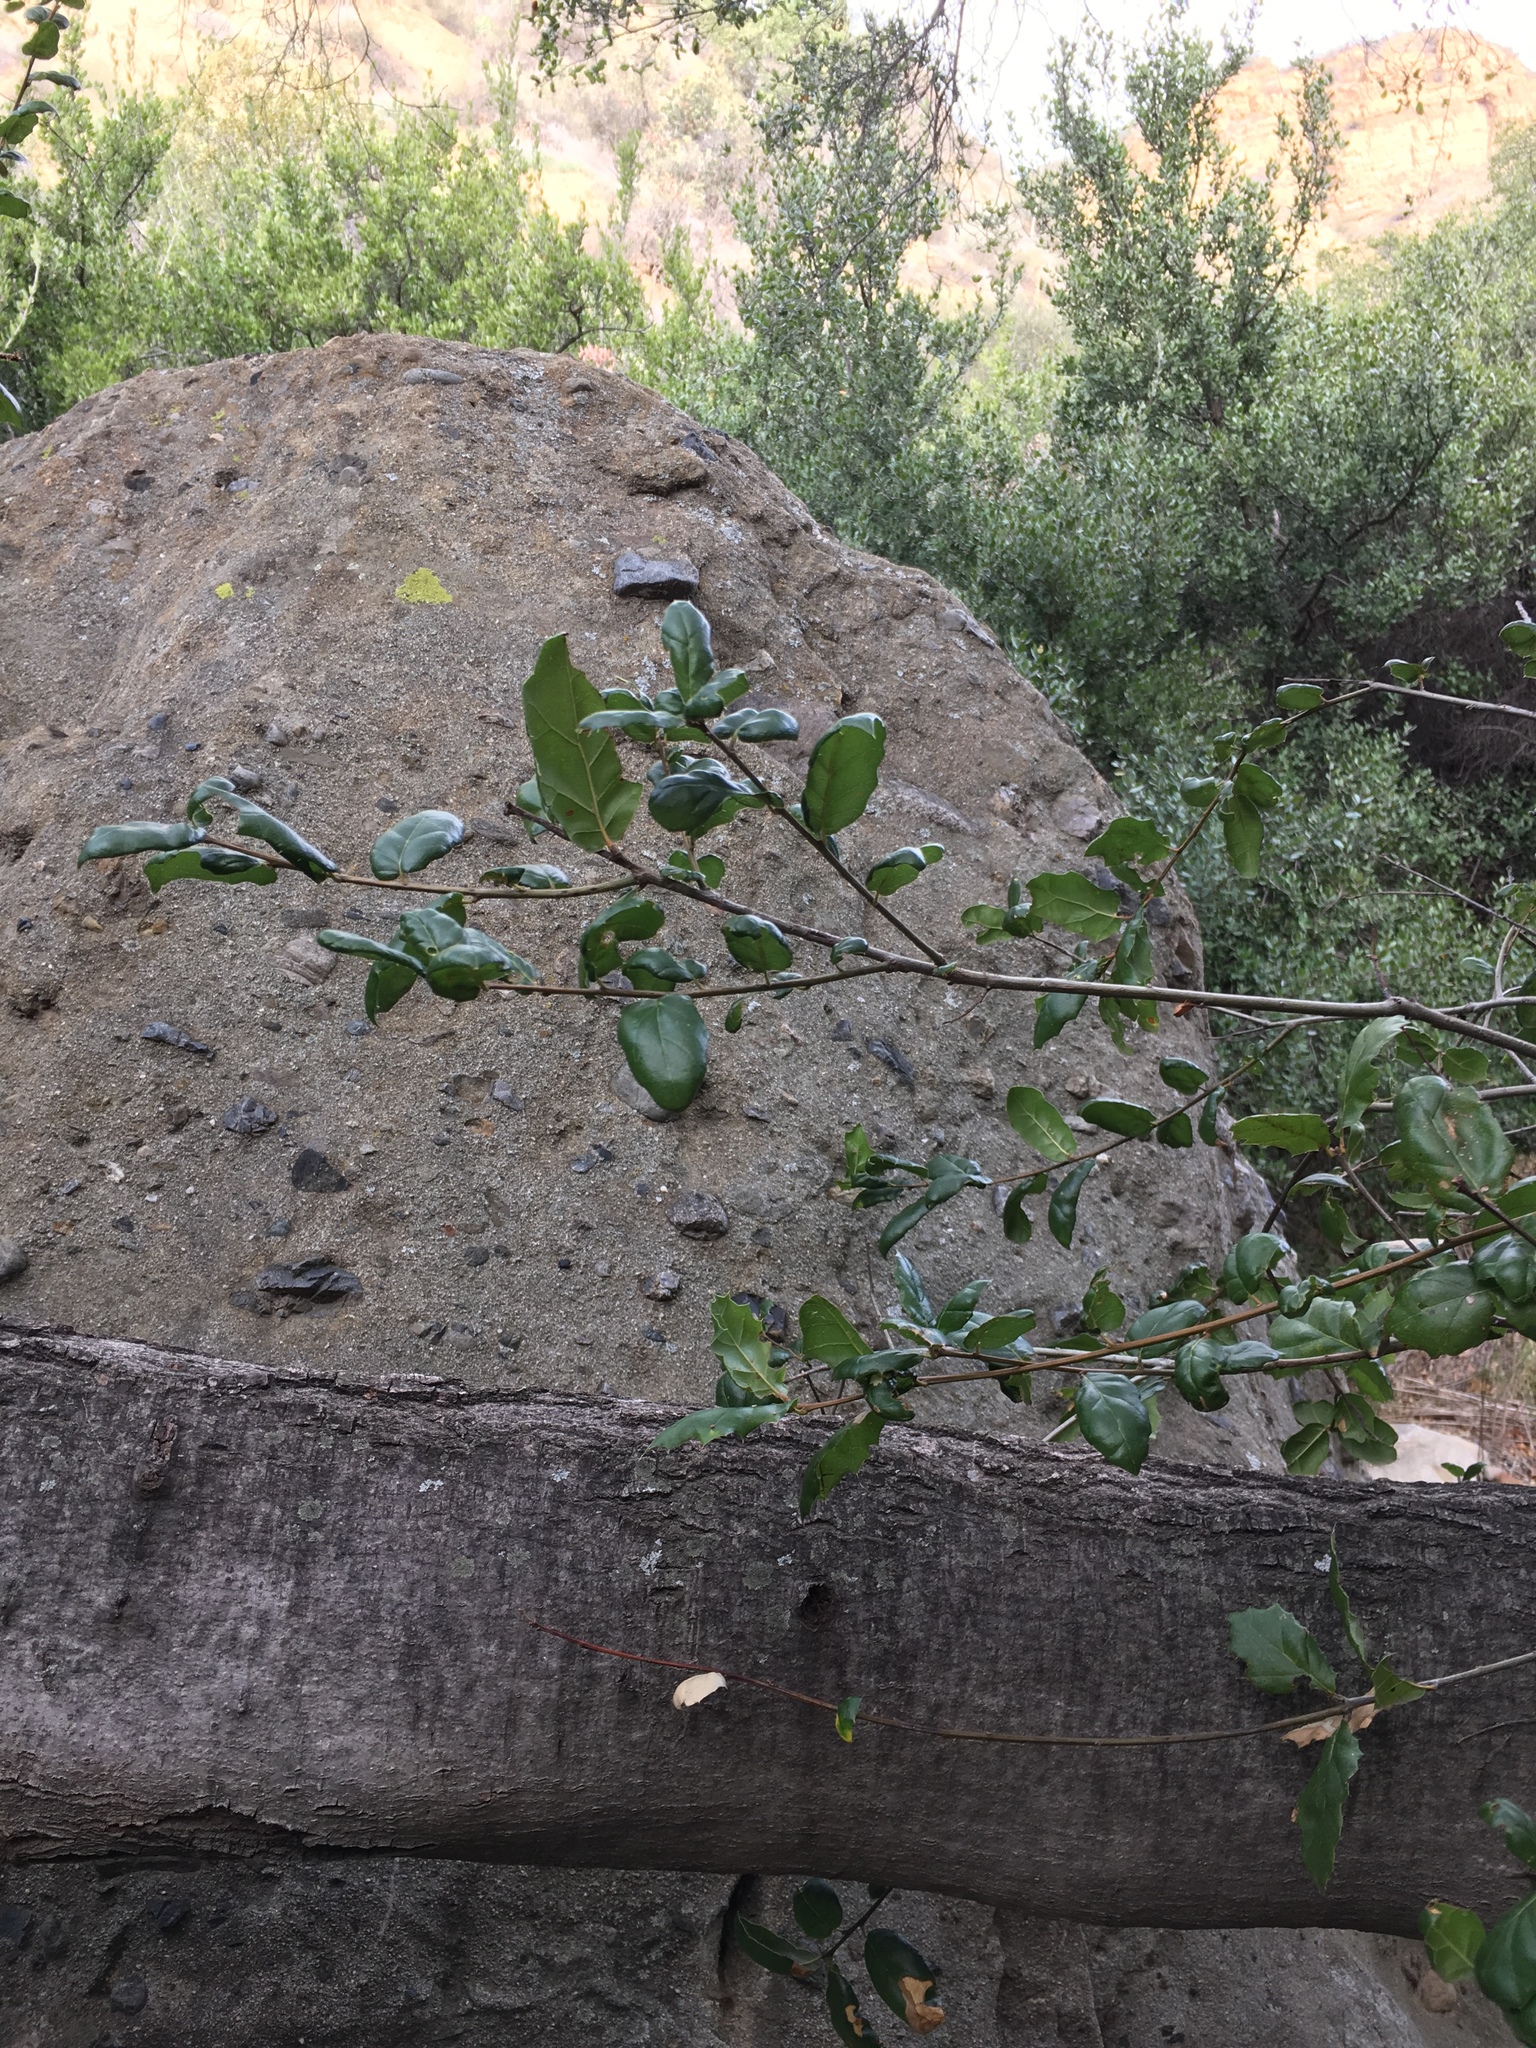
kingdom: Plantae
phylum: Tracheophyta
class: Magnoliopsida
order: Fagales
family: Fagaceae
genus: Quercus
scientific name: Quercus agrifolia
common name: California live oak
